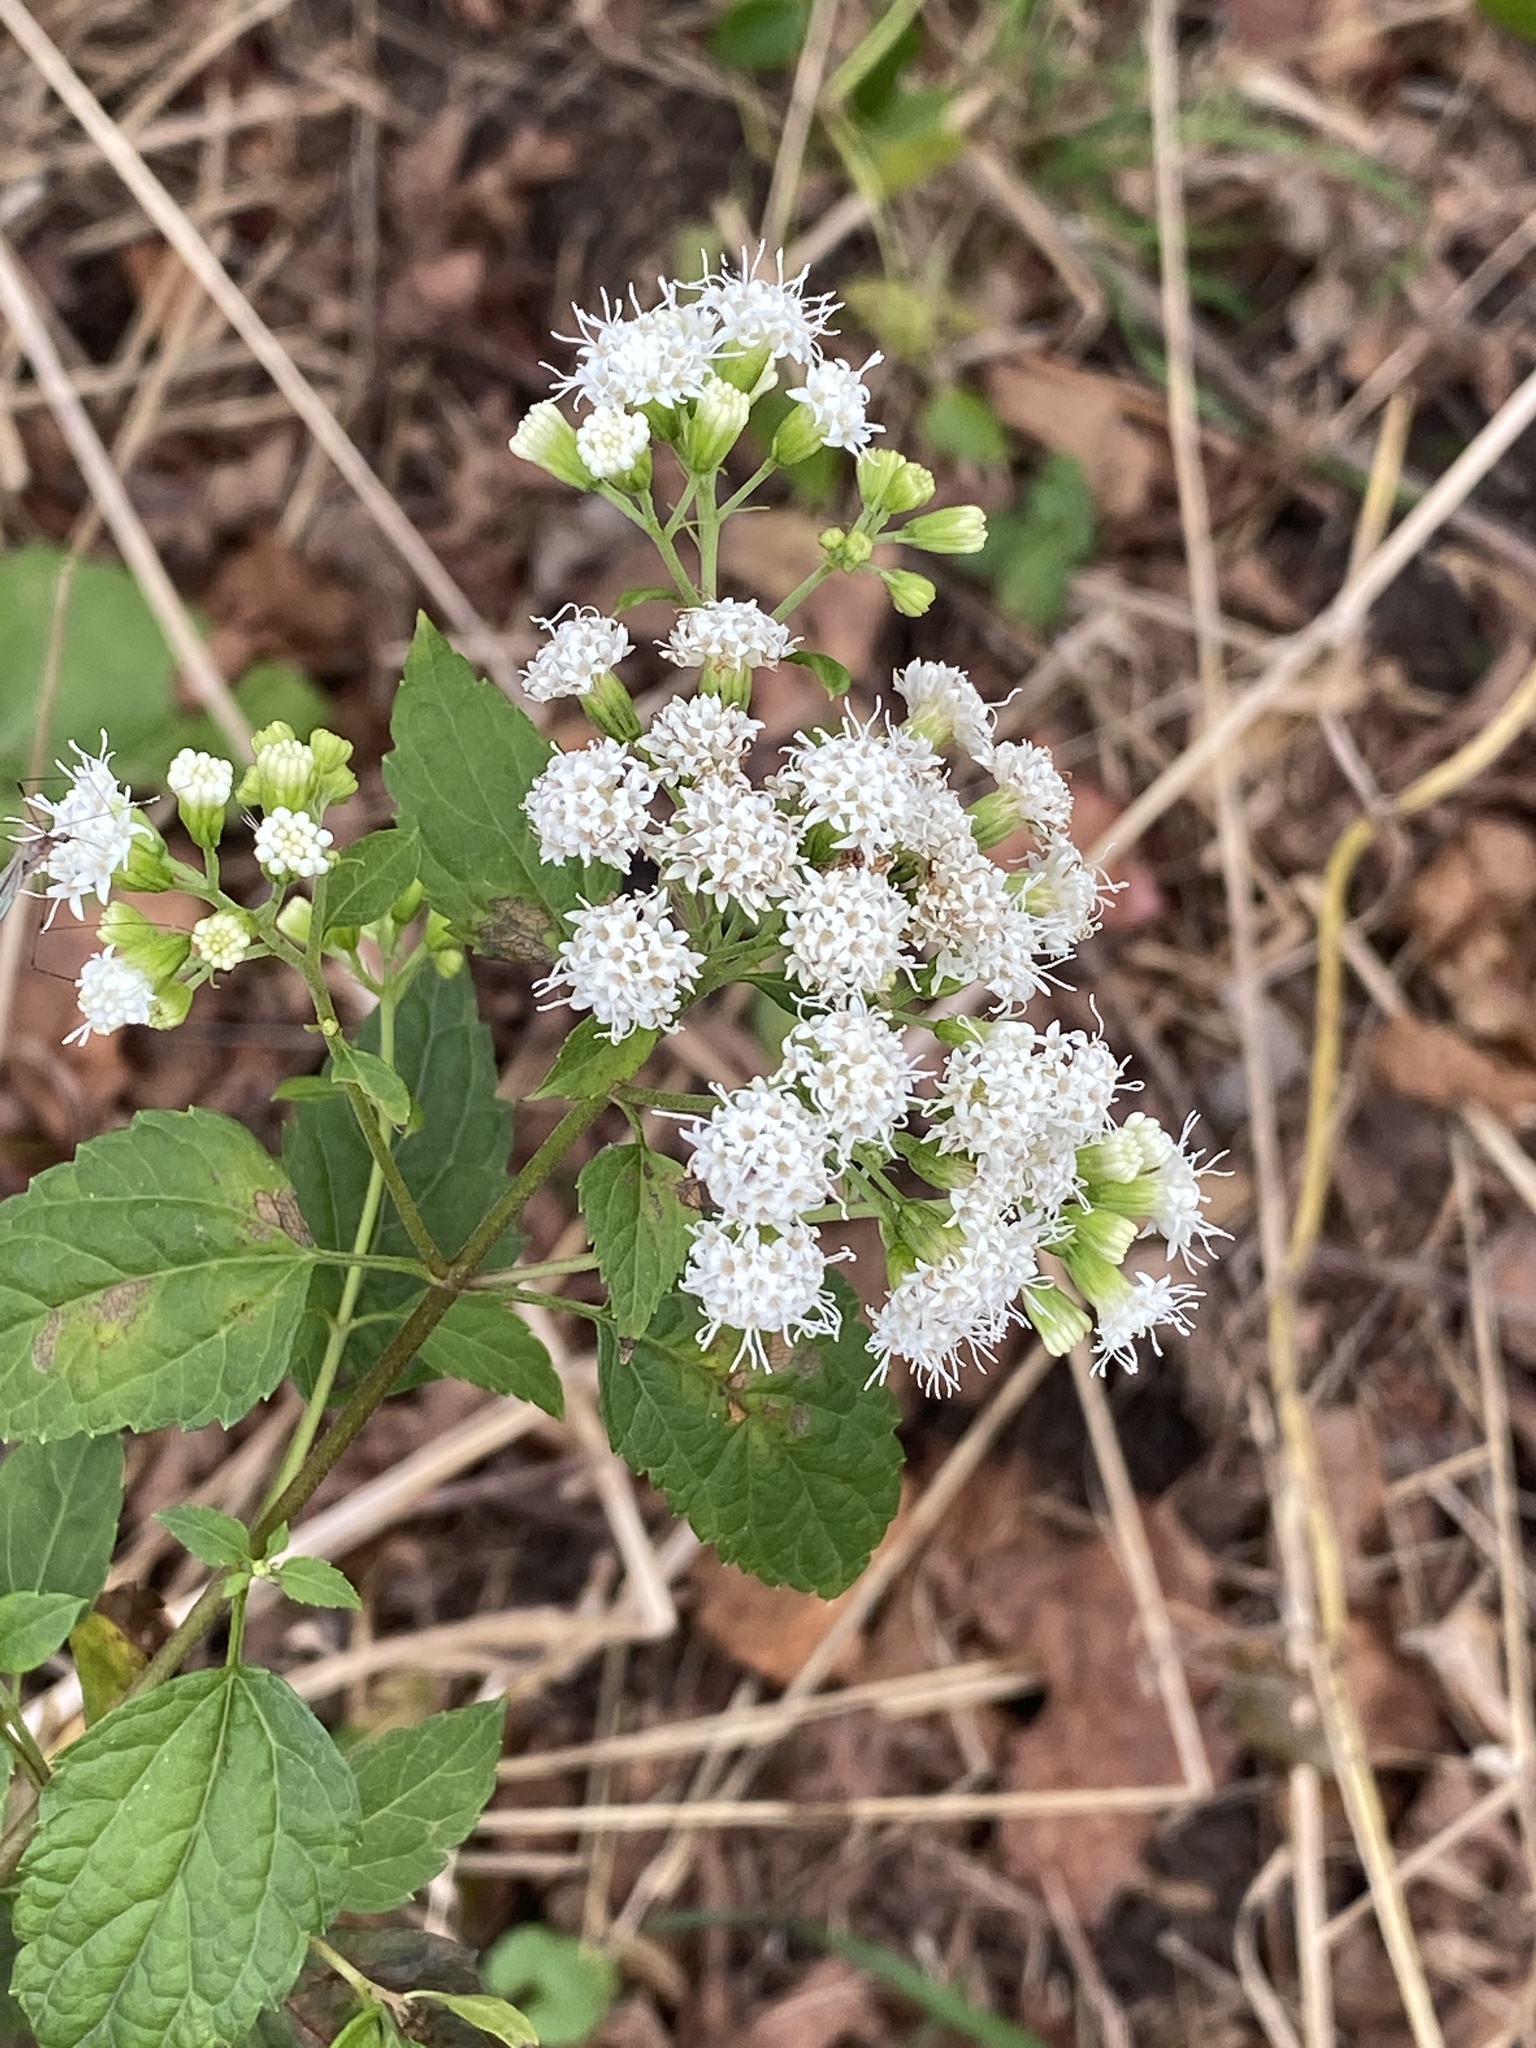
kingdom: Plantae
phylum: Tracheophyta
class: Magnoliopsida
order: Asterales
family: Asteraceae
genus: Ageratina
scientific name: Ageratina altissima
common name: White snakeroot
